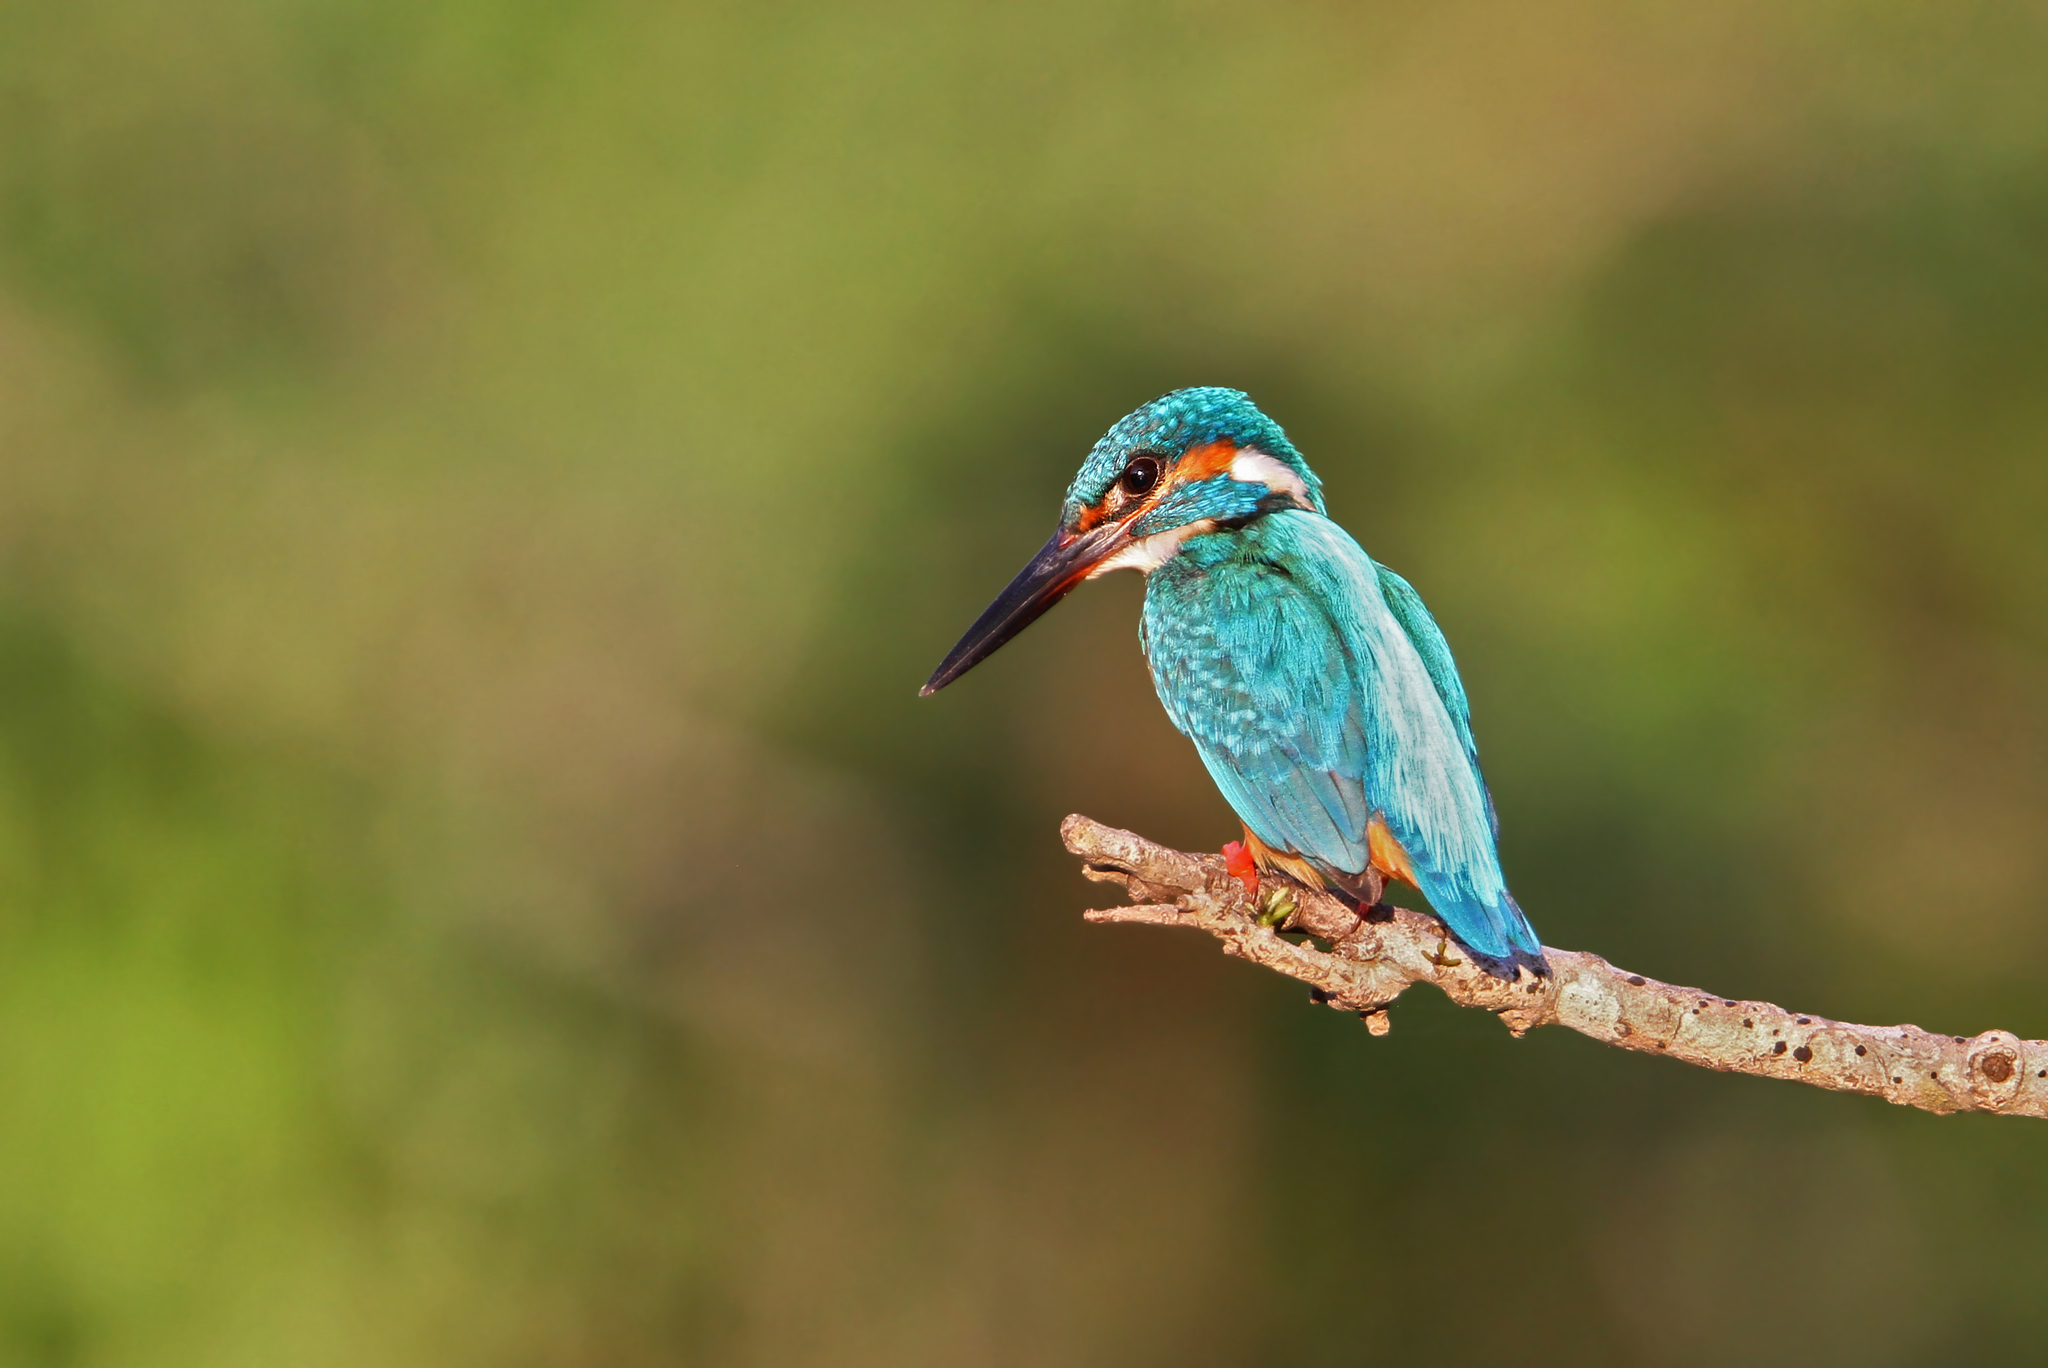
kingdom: Animalia
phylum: Chordata
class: Aves
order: Coraciiformes
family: Alcedinidae
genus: Alcedo
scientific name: Alcedo atthis
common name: Common kingfisher
